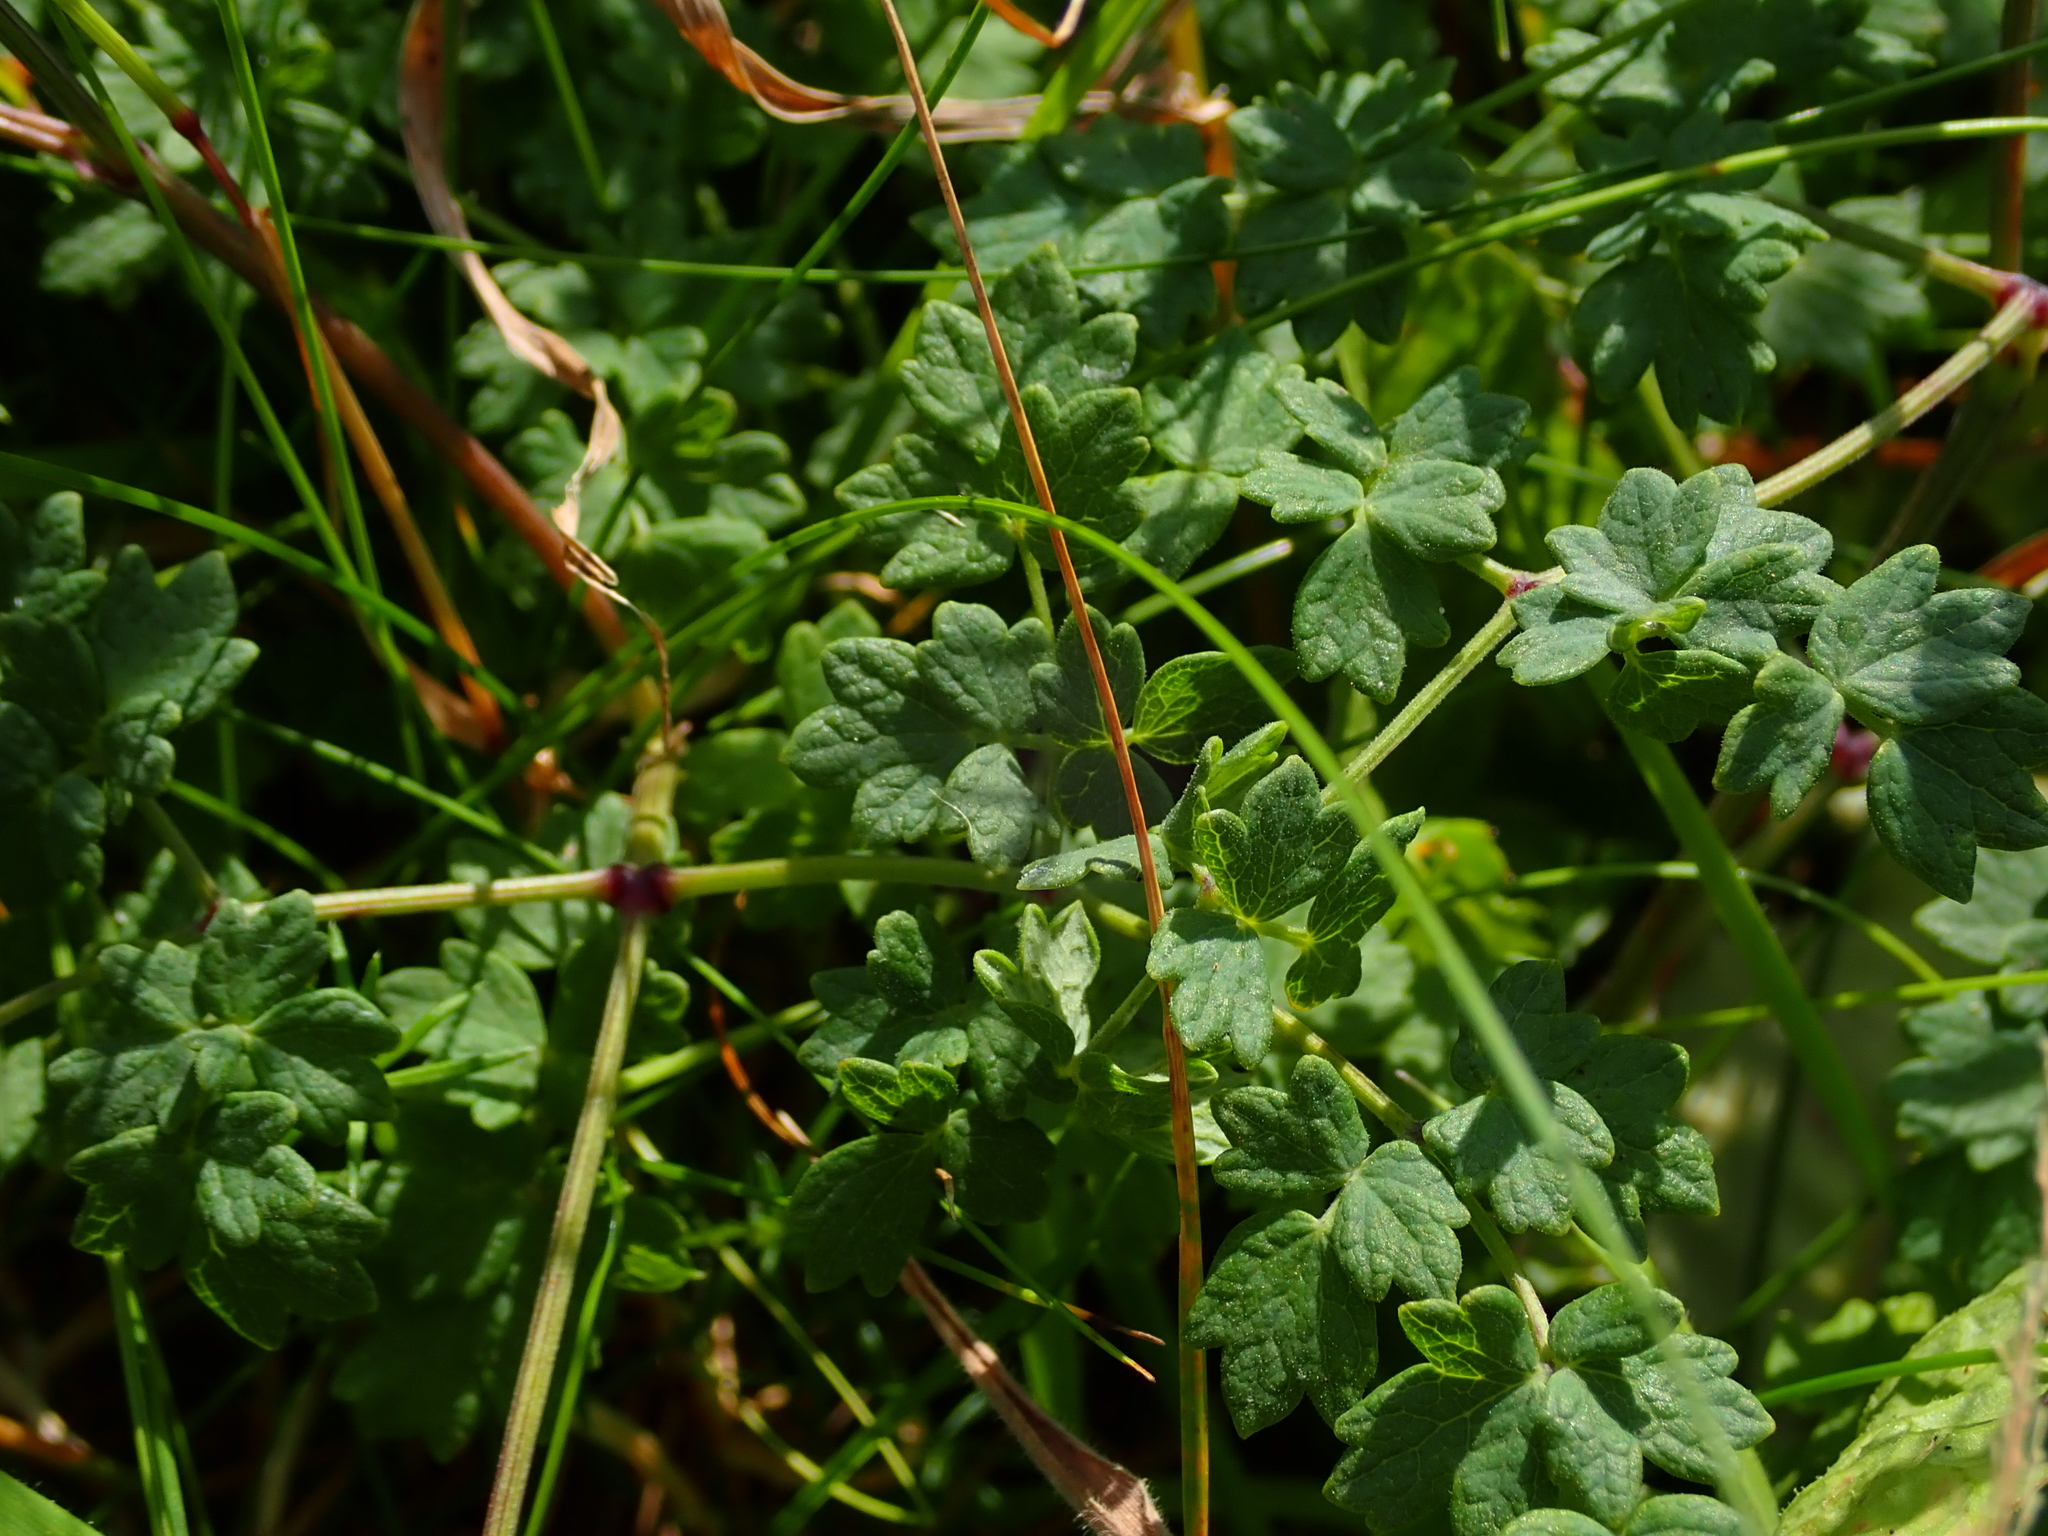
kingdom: Plantae
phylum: Tracheophyta
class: Magnoliopsida
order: Ranunculales
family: Ranunculaceae
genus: Thalictrum
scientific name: Thalictrum minus
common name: Lesser meadow-rue
